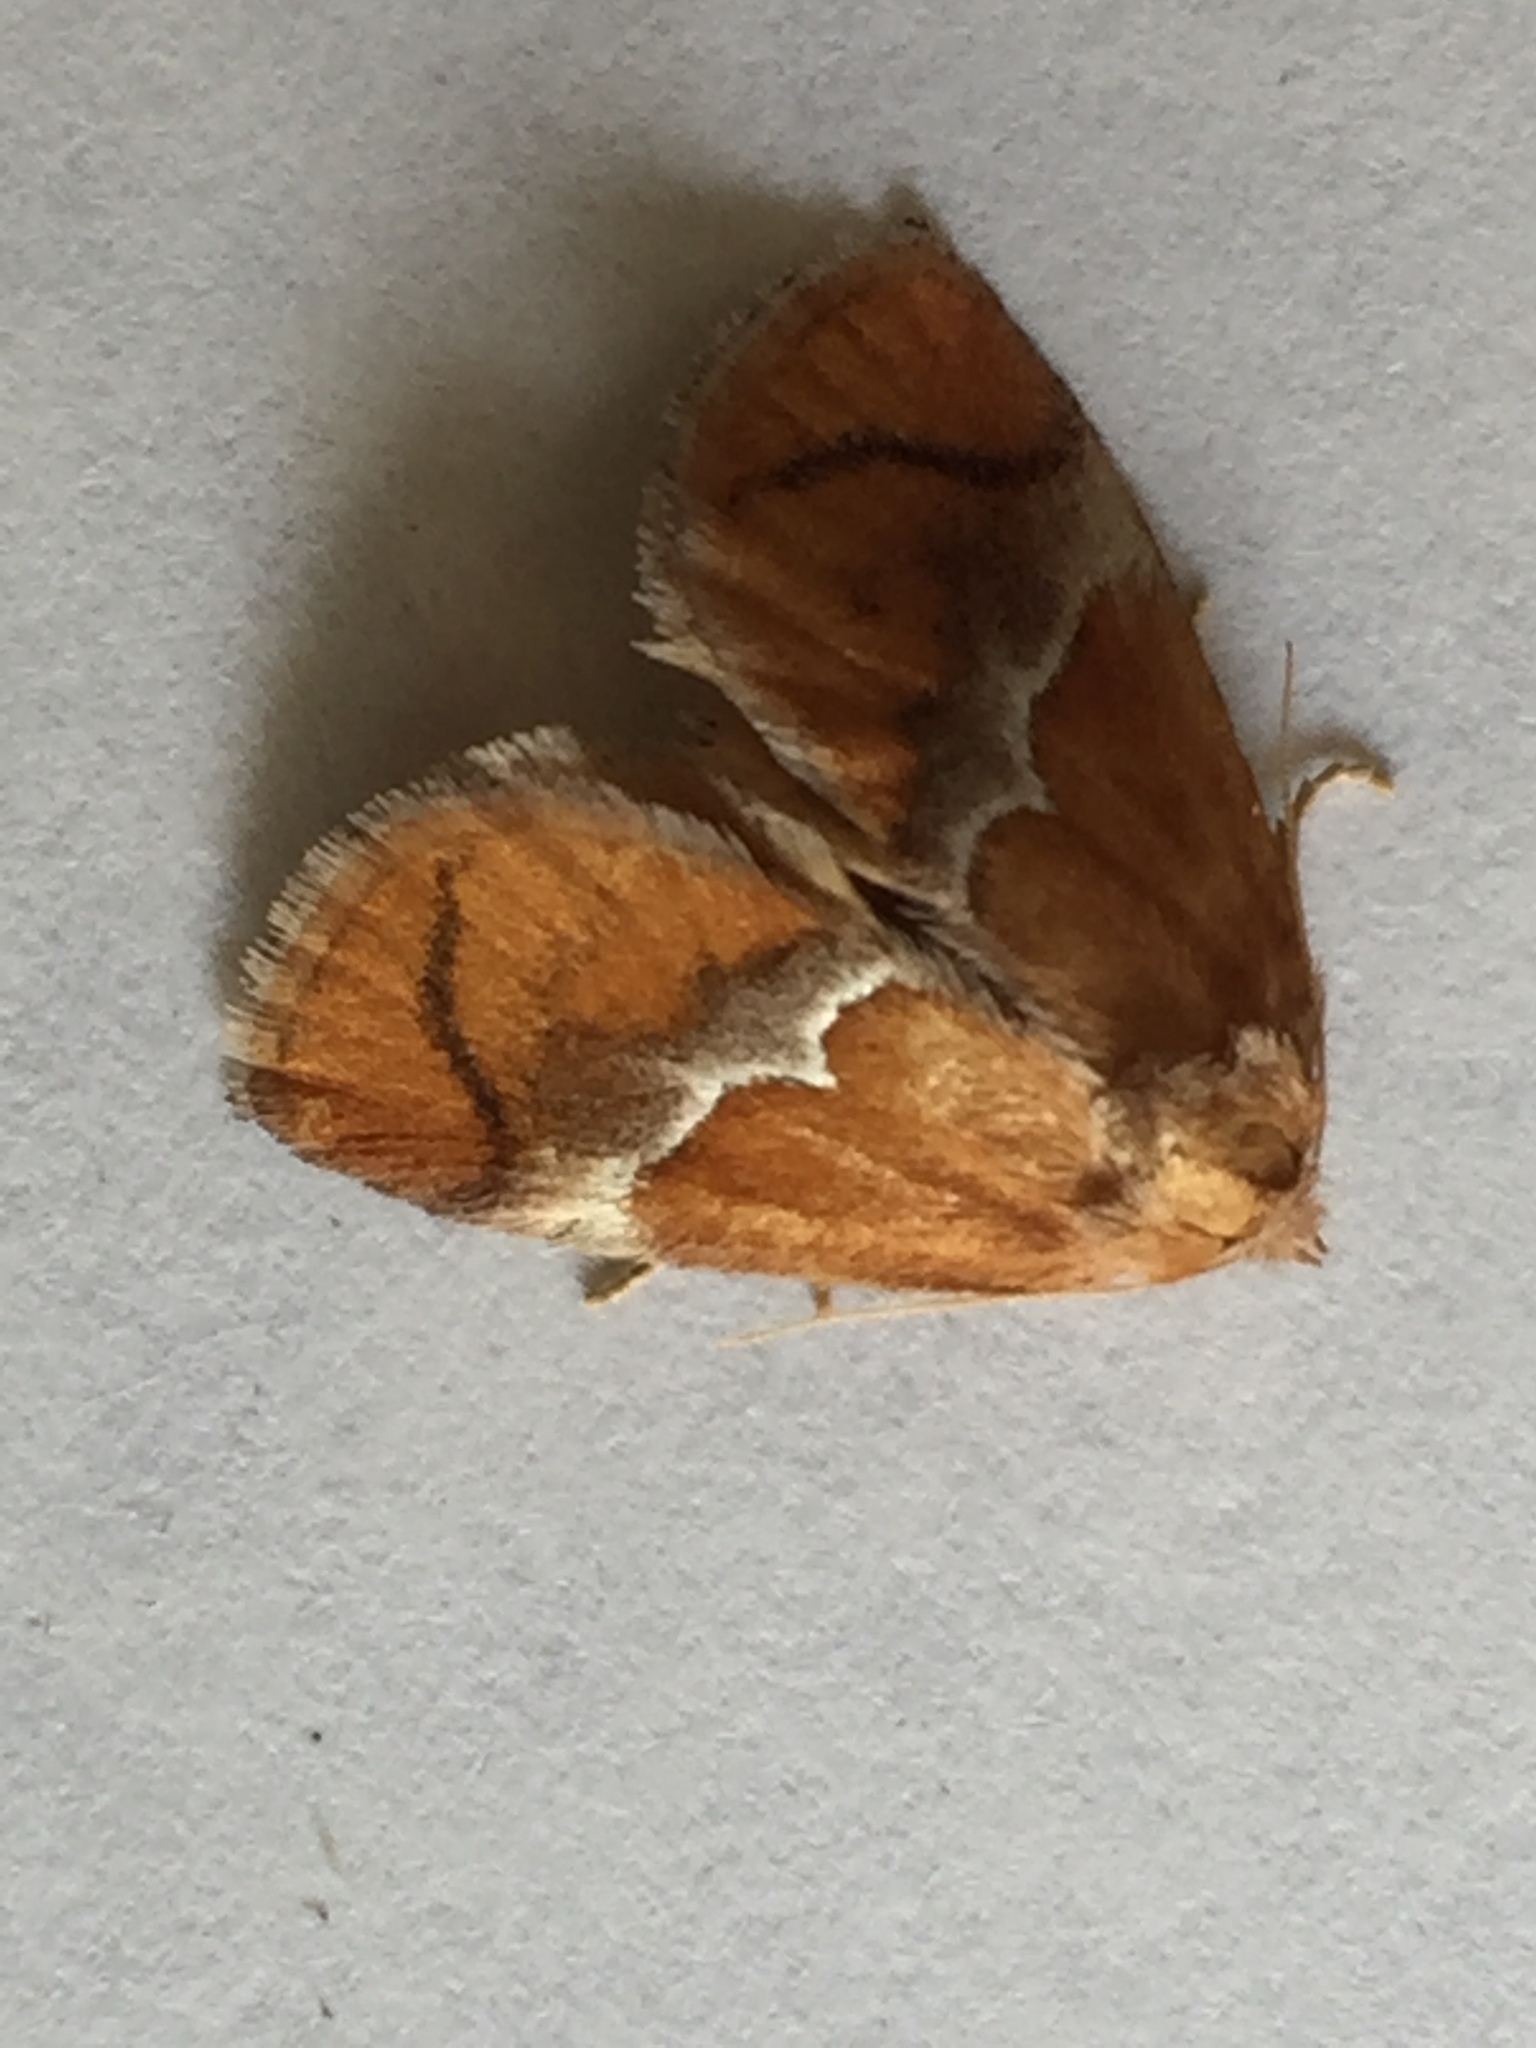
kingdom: Animalia
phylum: Arthropoda
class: Insecta
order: Lepidoptera
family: Limacodidae
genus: Lithacodes
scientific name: Lithacodes fasciola
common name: Yellow-shouldered slug moth
